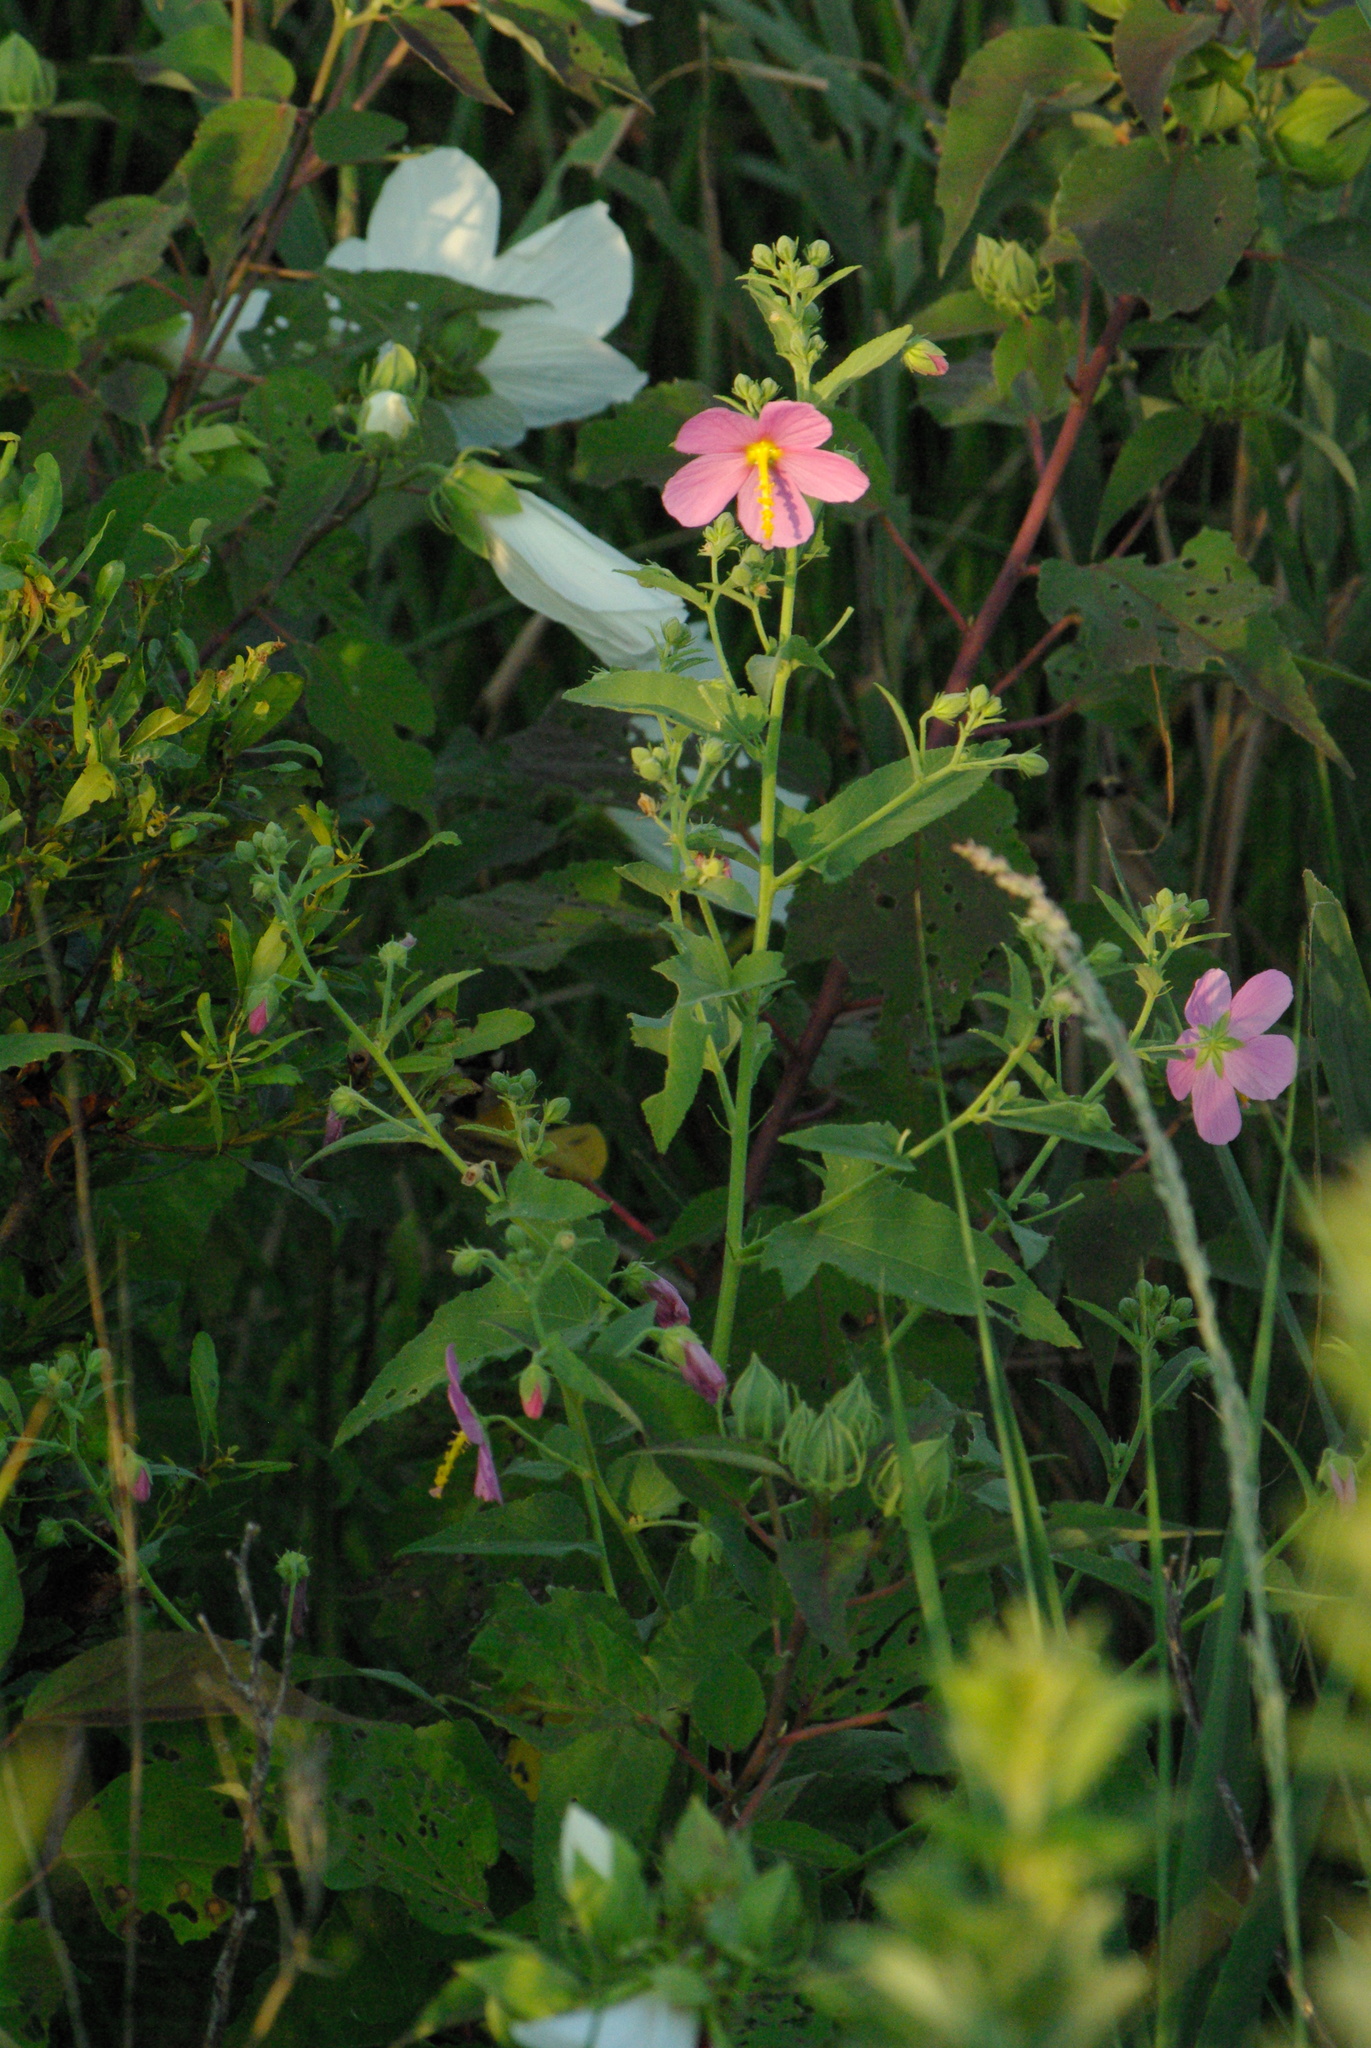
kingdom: Plantae
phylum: Tracheophyta
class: Magnoliopsida
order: Malvales
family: Malvaceae
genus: Kosteletzkya
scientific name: Kosteletzkya pentacarpos
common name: Virginia saltmarsh mallow
